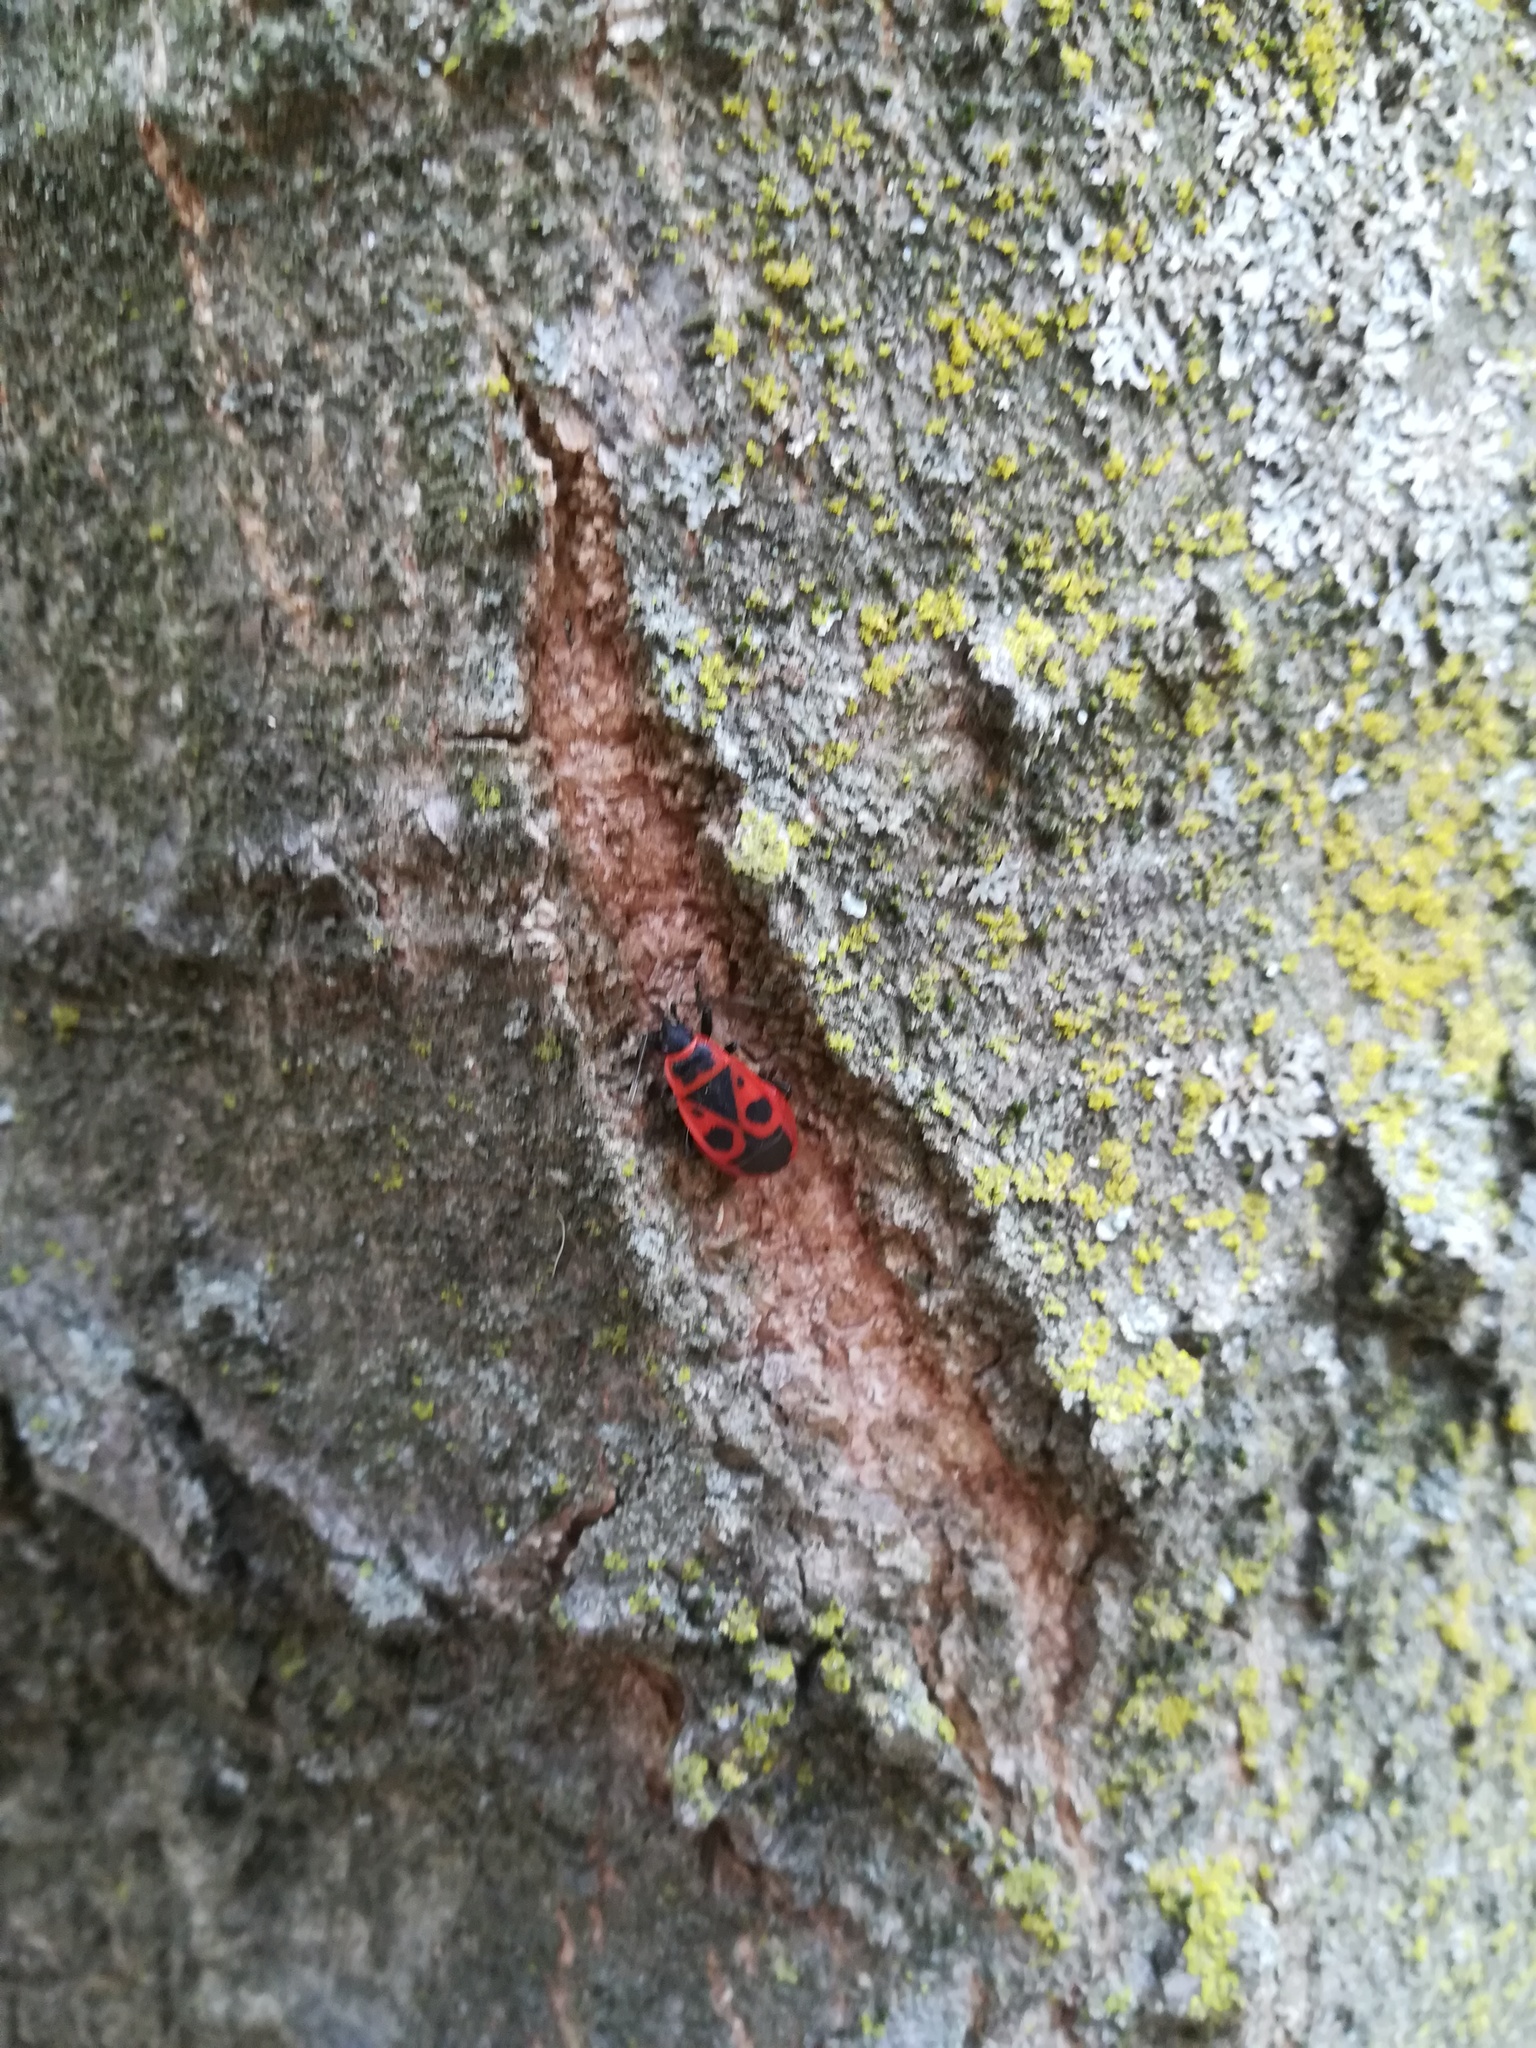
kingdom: Animalia
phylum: Arthropoda
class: Insecta
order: Hemiptera
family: Pyrrhocoridae
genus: Pyrrhocoris
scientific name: Pyrrhocoris apterus
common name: Firebug
